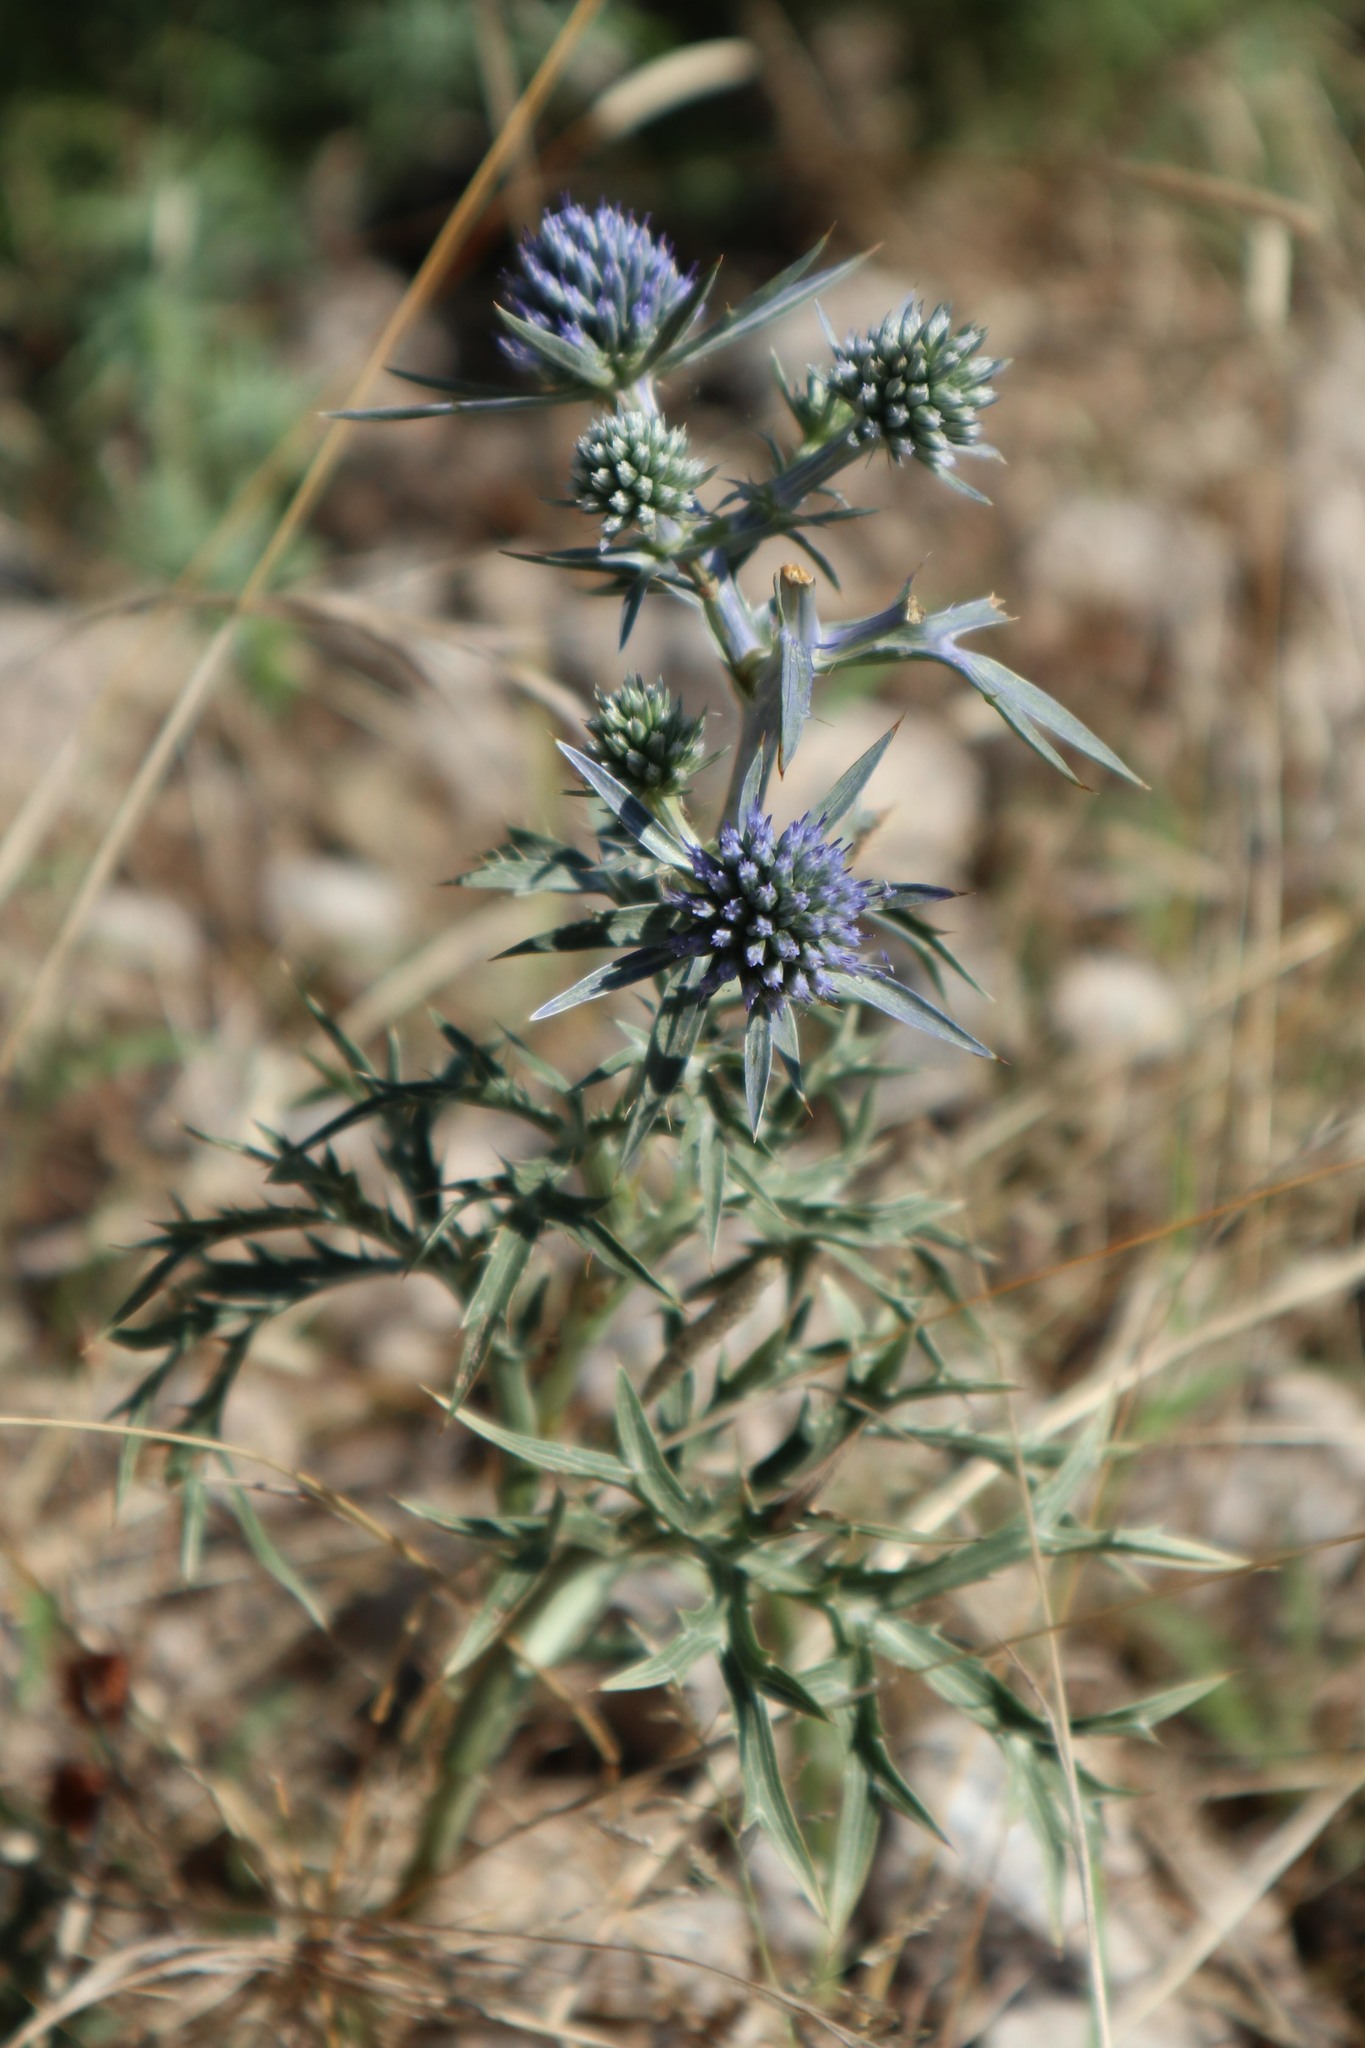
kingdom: Plantae
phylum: Tracheophyta
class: Magnoliopsida
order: Apiales
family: Apiaceae
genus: Eryngium
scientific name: Eryngium amethystinum
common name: Amethyst eryngo
